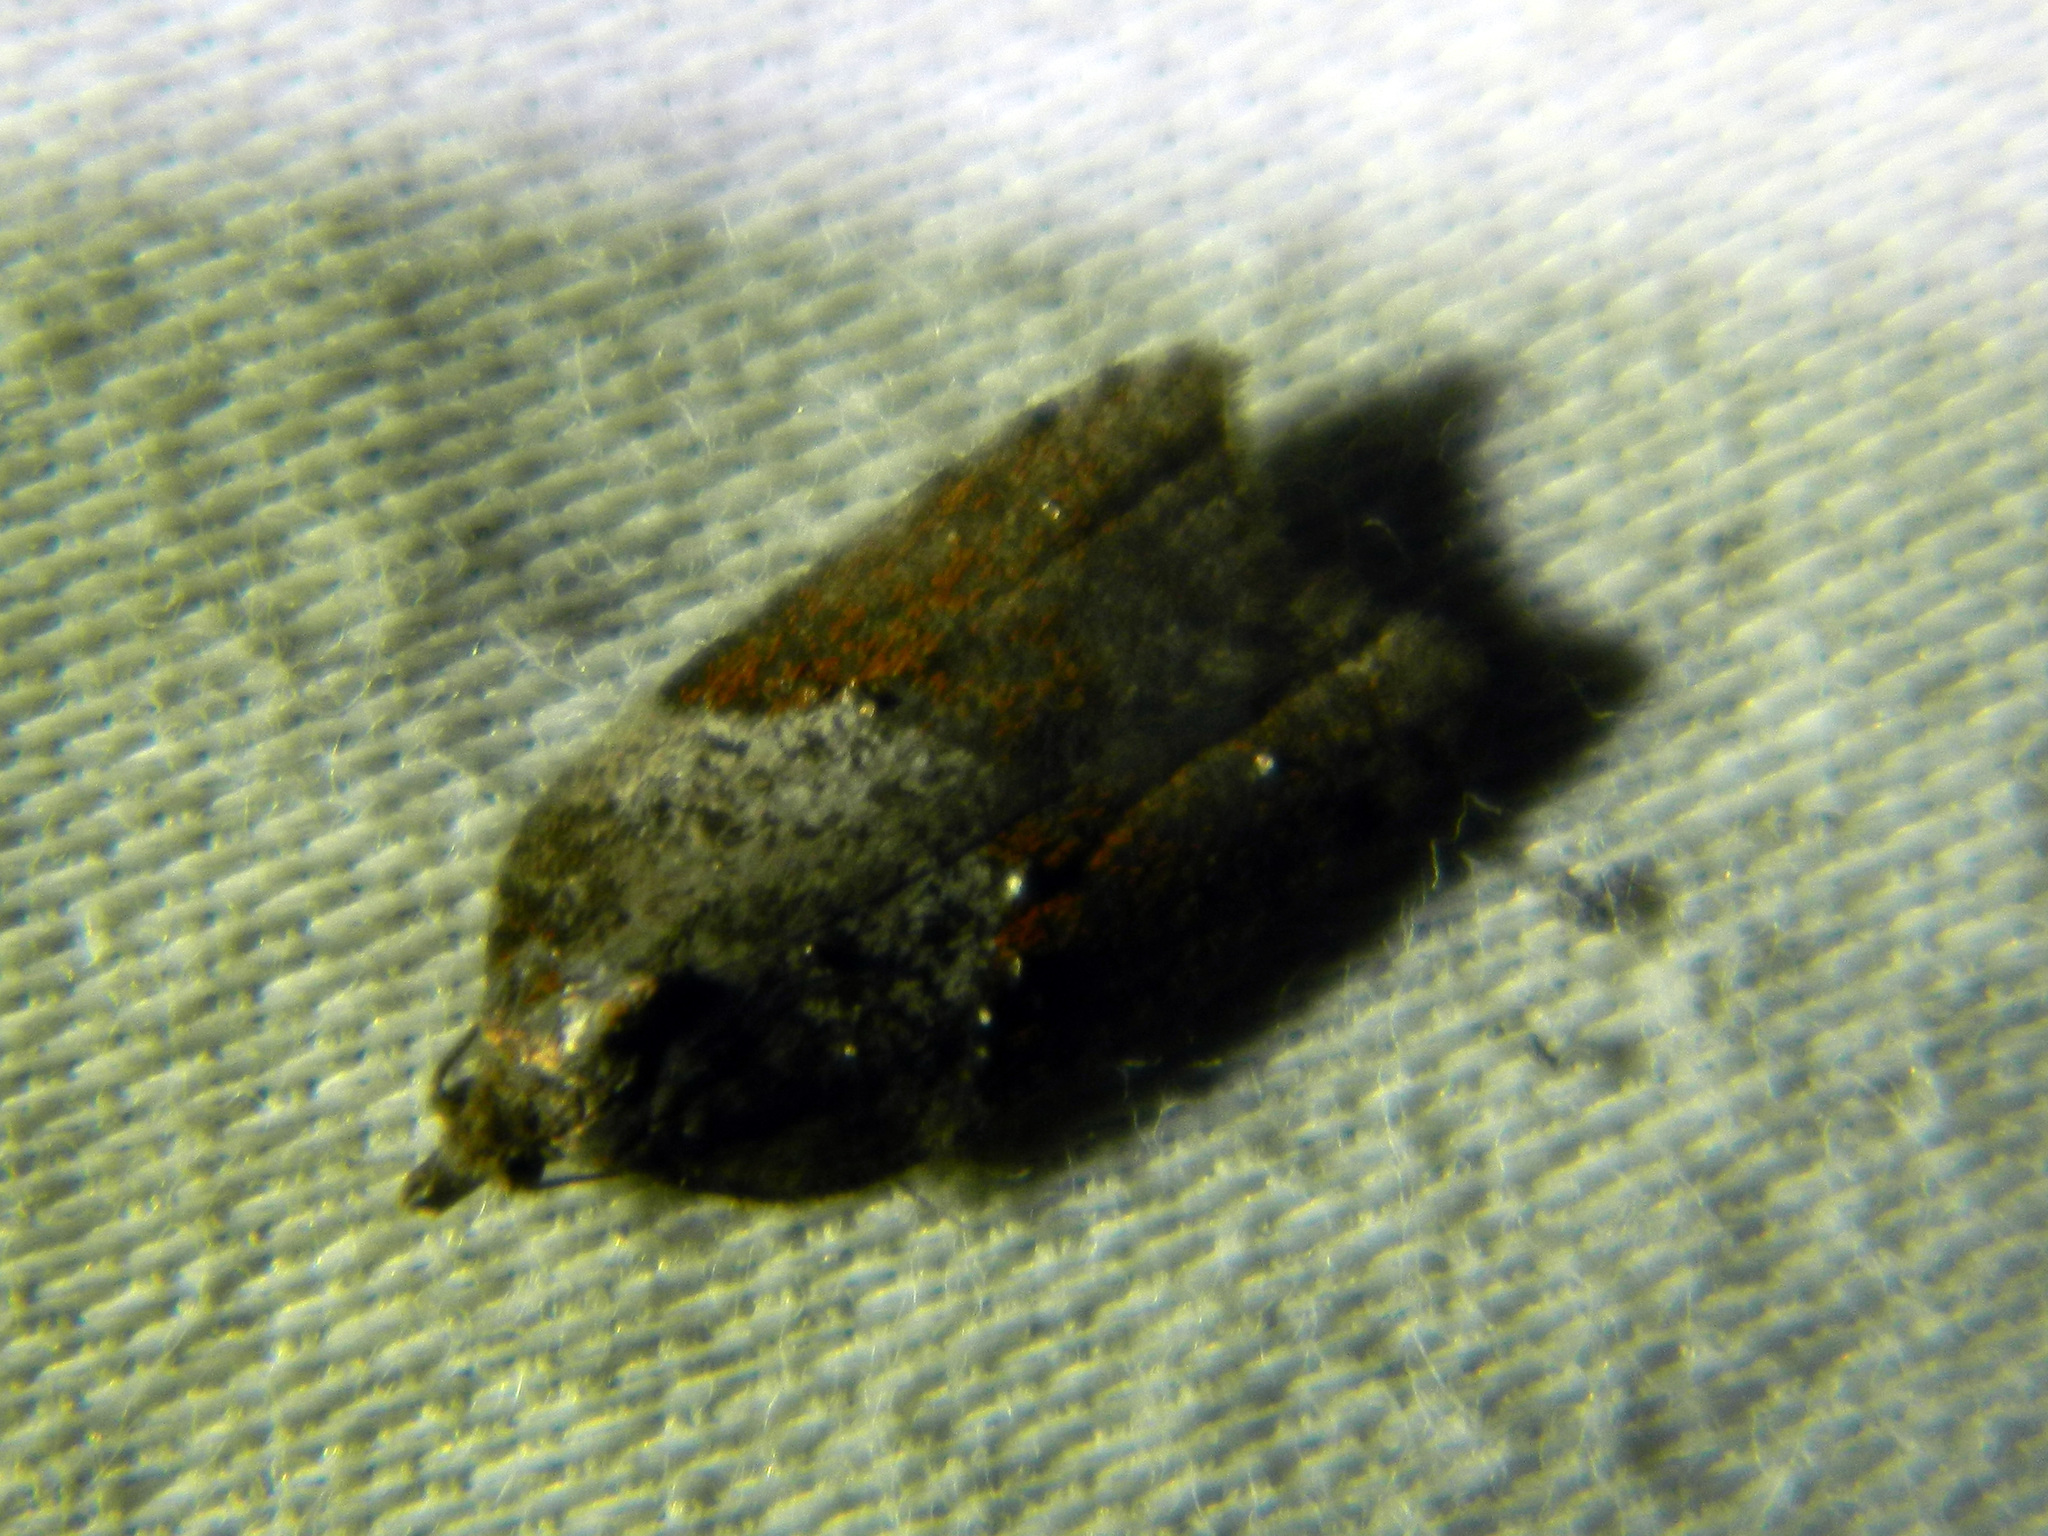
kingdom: Animalia
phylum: Arthropoda
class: Insecta
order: Lepidoptera
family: Tortricidae
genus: Acleris
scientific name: Acleris macdunnoughi
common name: Macdunnough's acleris
